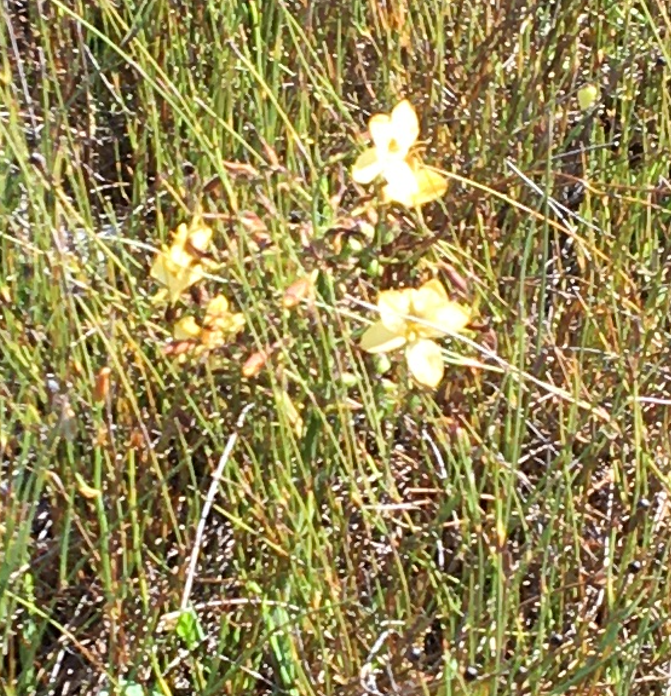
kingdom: Plantae
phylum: Tracheophyta
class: Liliopsida
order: Commelinales
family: Haemodoraceae
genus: Wachendorfia
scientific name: Wachendorfia paniculata
